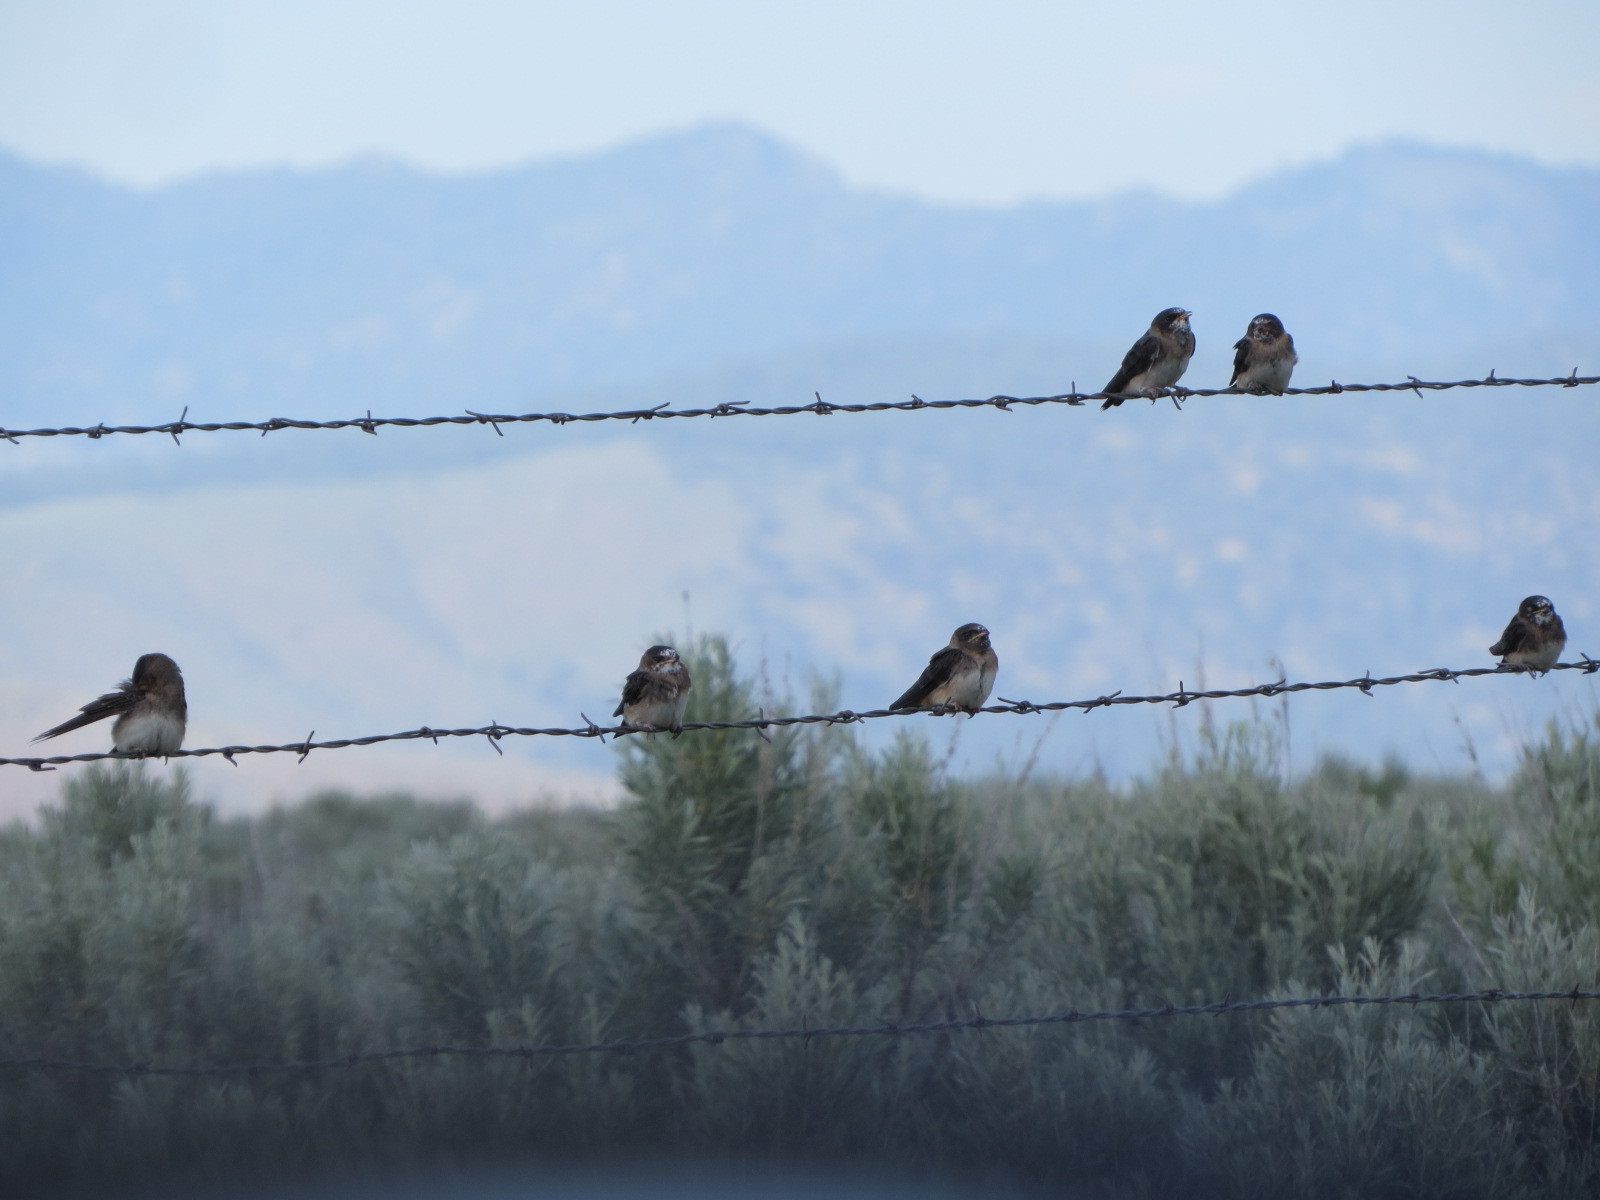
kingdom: Animalia
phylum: Chordata
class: Aves
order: Passeriformes
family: Hirundinidae
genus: Petrochelidon
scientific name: Petrochelidon pyrrhonota
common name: American cliff swallow
